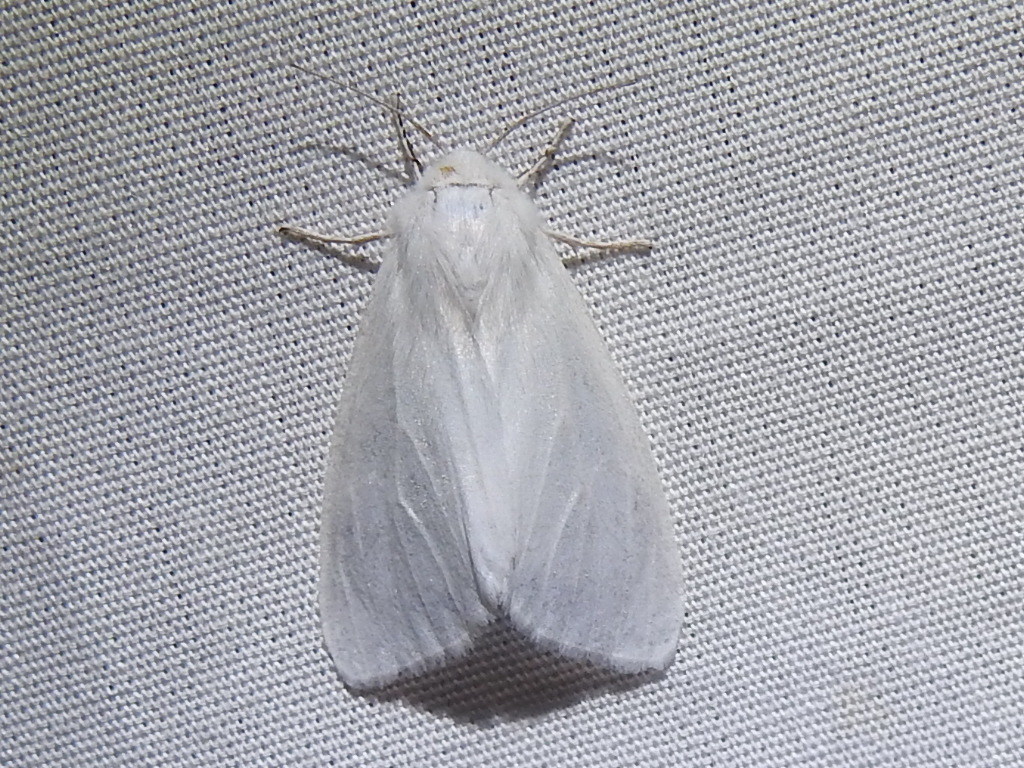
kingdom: Animalia
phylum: Arthropoda
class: Insecta
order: Lepidoptera
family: Erebidae
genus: Hyphantria
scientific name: Hyphantria cunea
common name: American white moth
